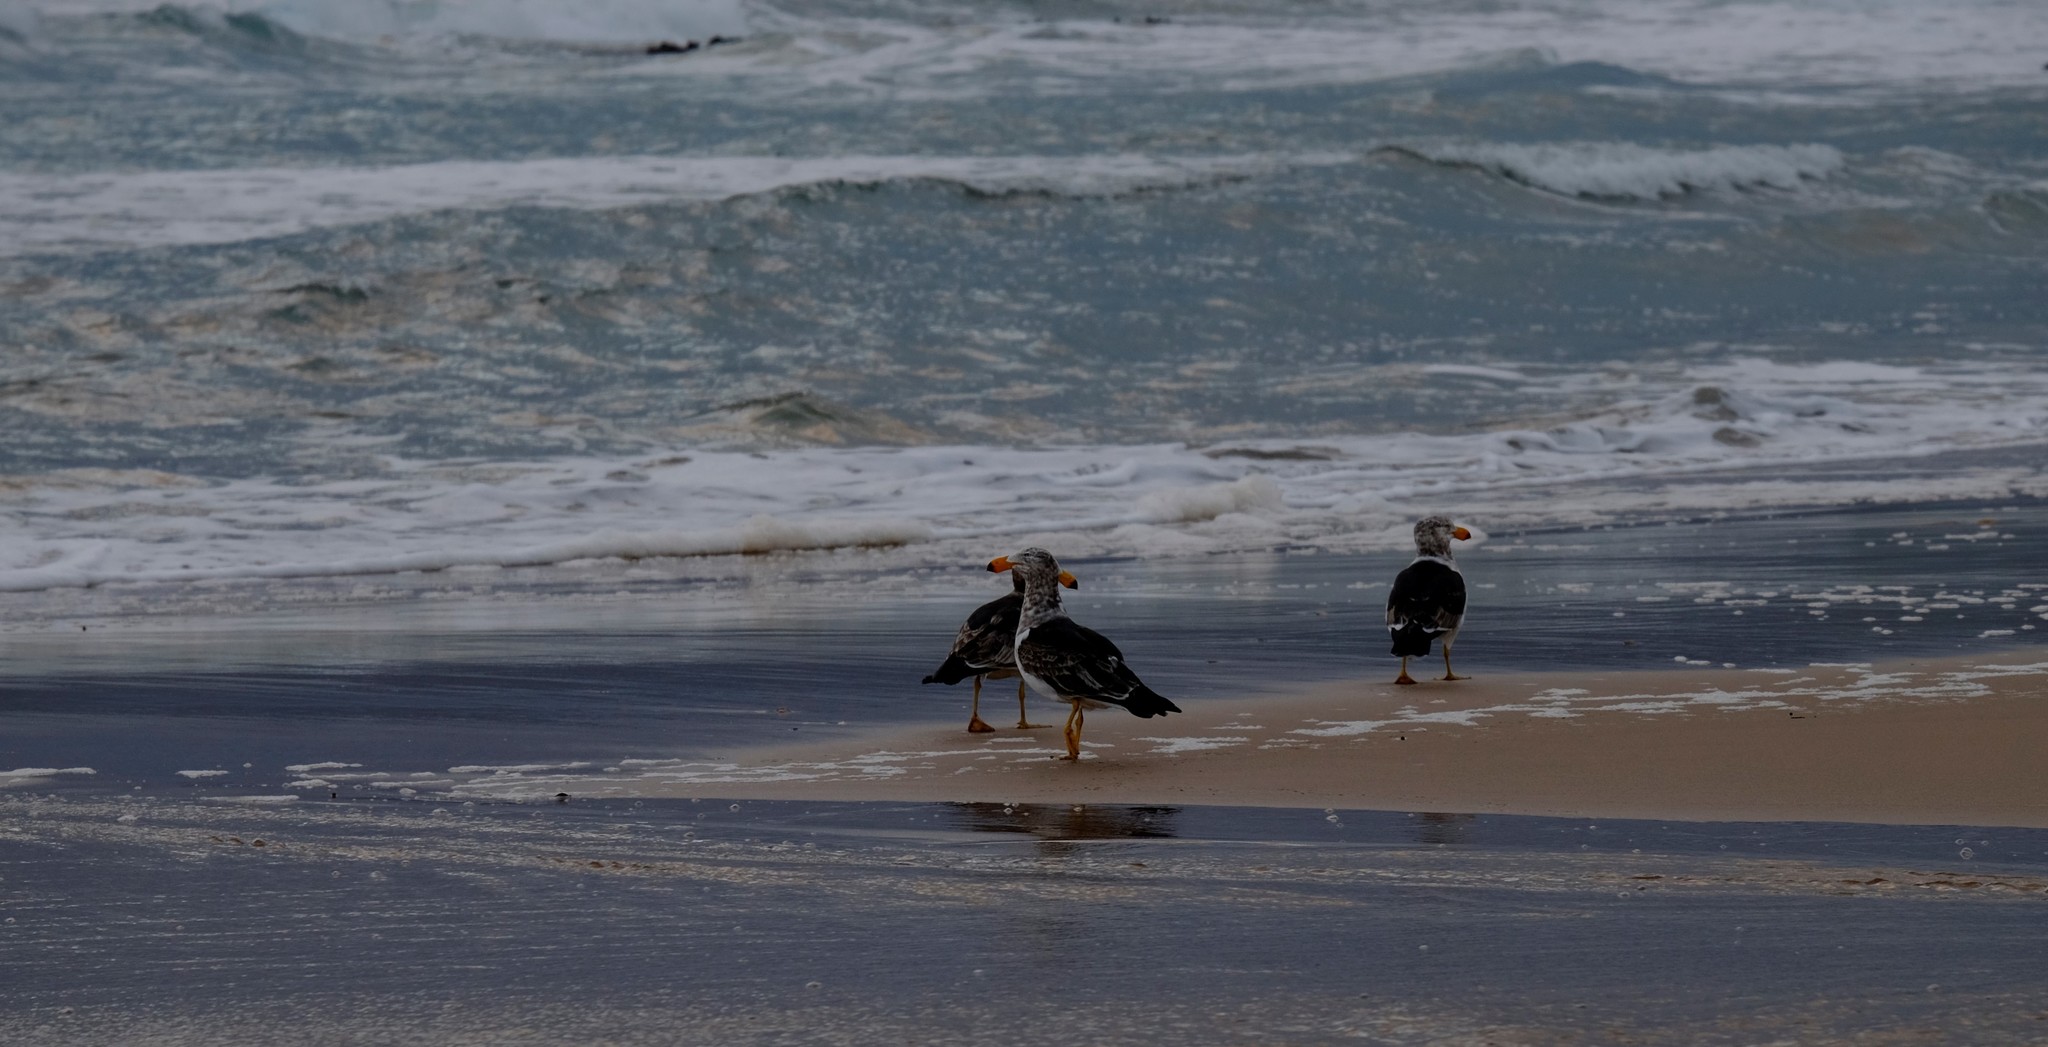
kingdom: Animalia
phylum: Chordata
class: Aves
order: Charadriiformes
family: Laridae
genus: Larus
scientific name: Larus pacificus
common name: Pacific gull
